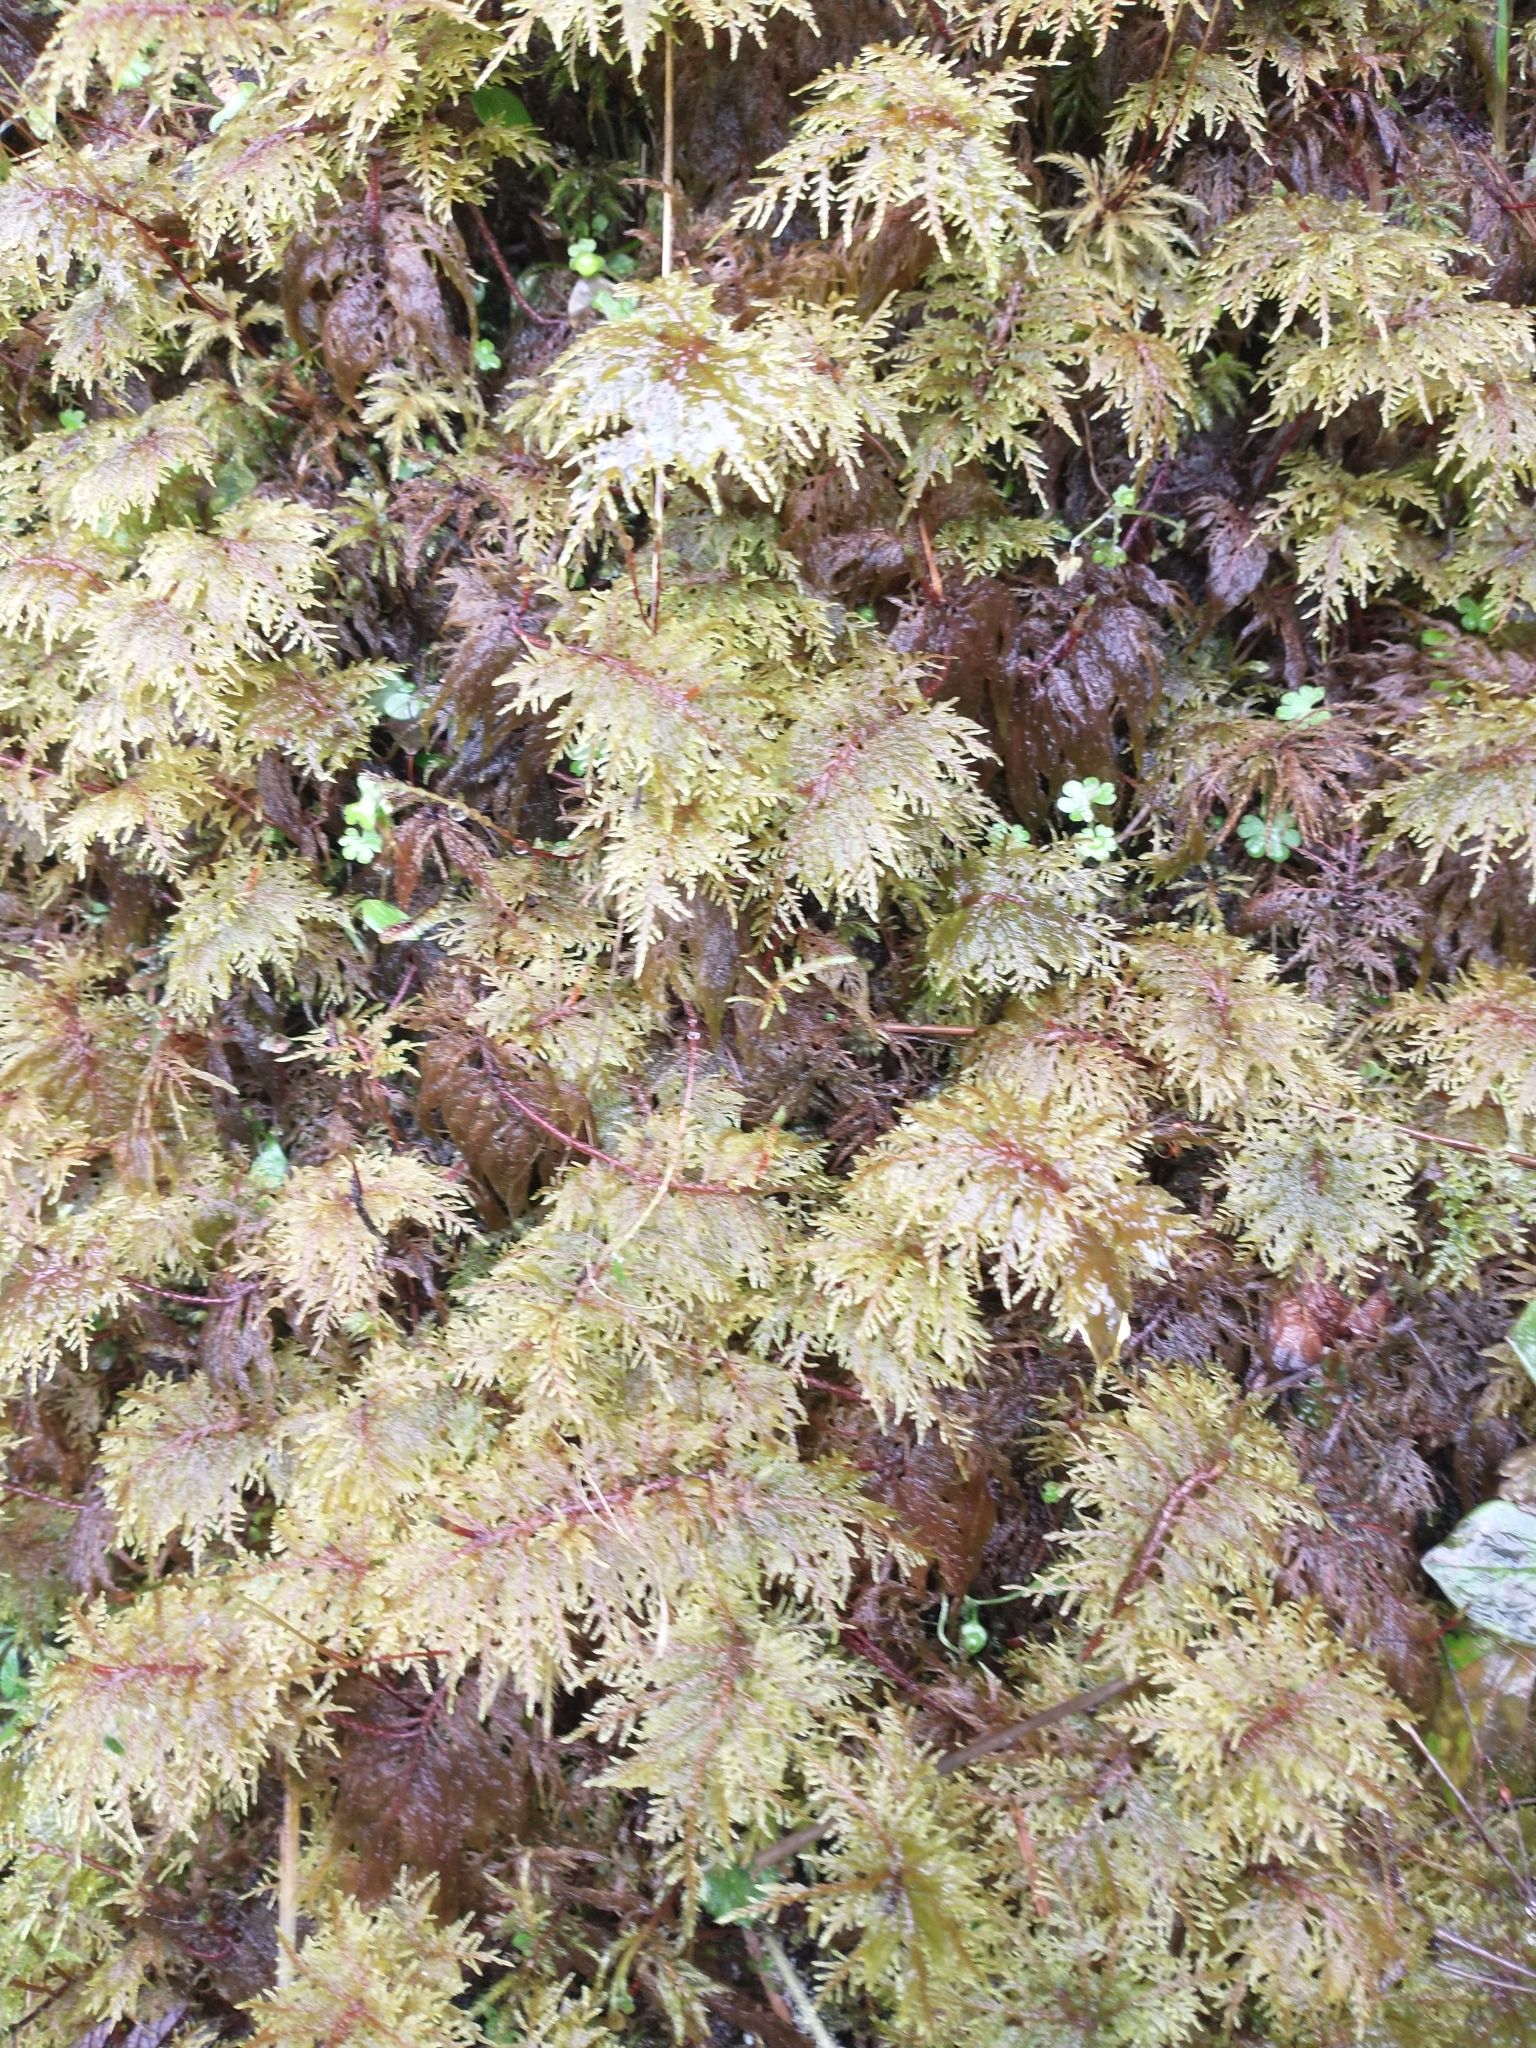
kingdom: Plantae
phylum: Bryophyta
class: Bryopsida
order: Hypnales
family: Hylocomiaceae
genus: Hylocomium
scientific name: Hylocomium splendens
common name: Stairstep moss
